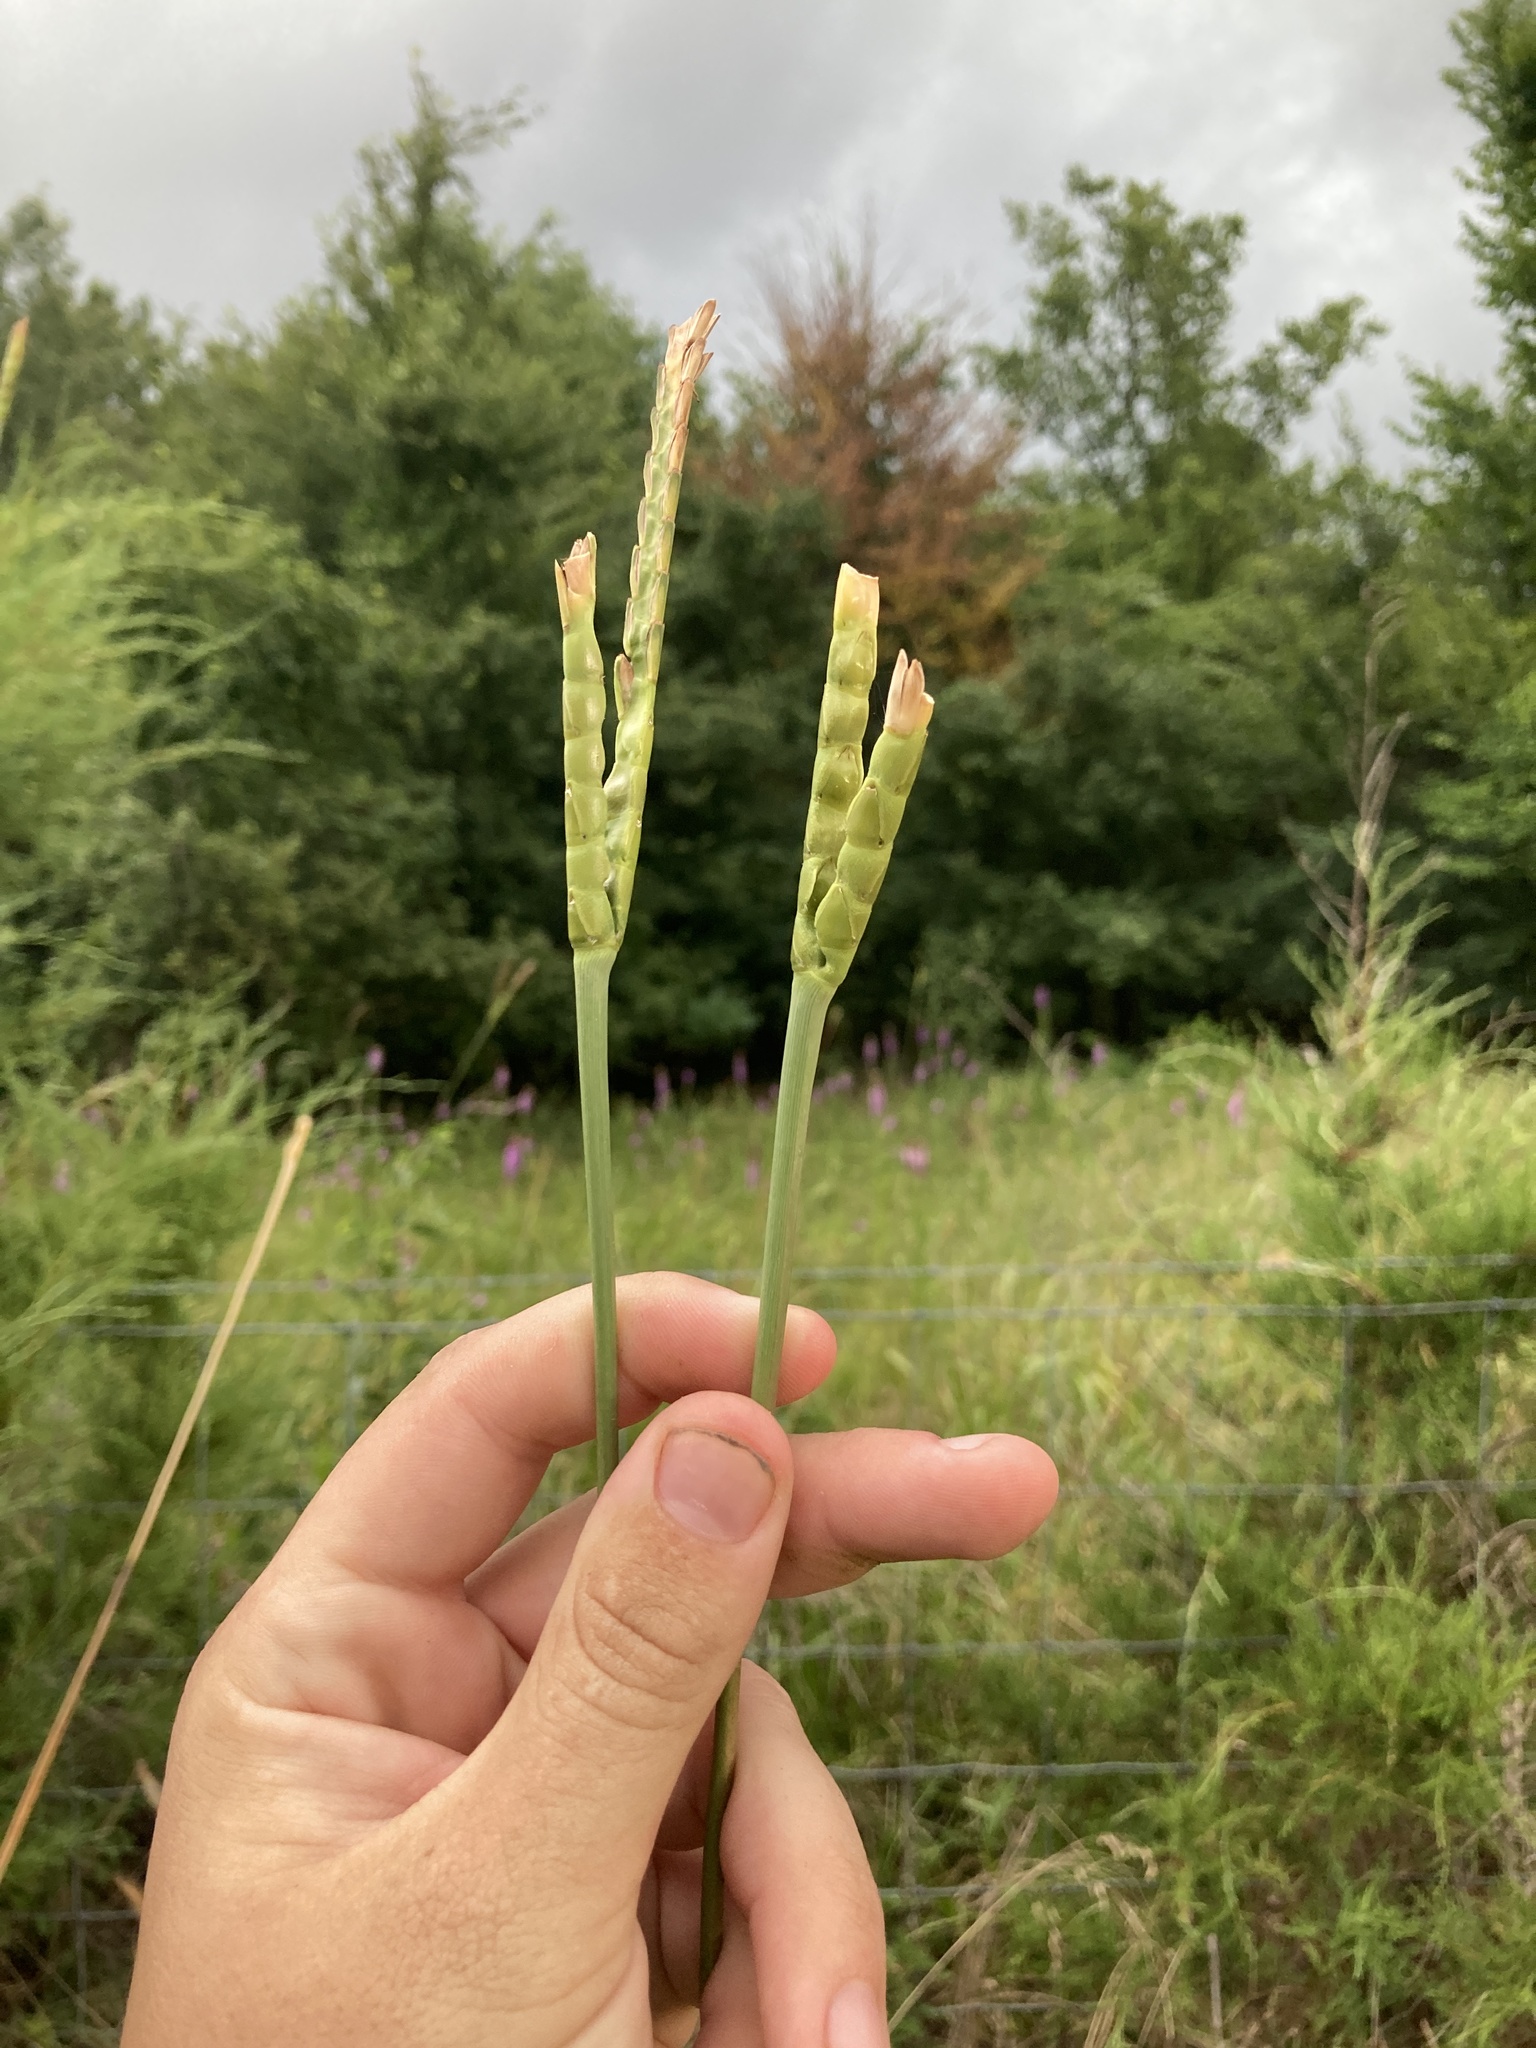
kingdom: Plantae
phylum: Tracheophyta
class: Liliopsida
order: Poales
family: Poaceae
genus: Tripsacum
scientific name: Tripsacum dactyloides
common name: Buffalo-grass
